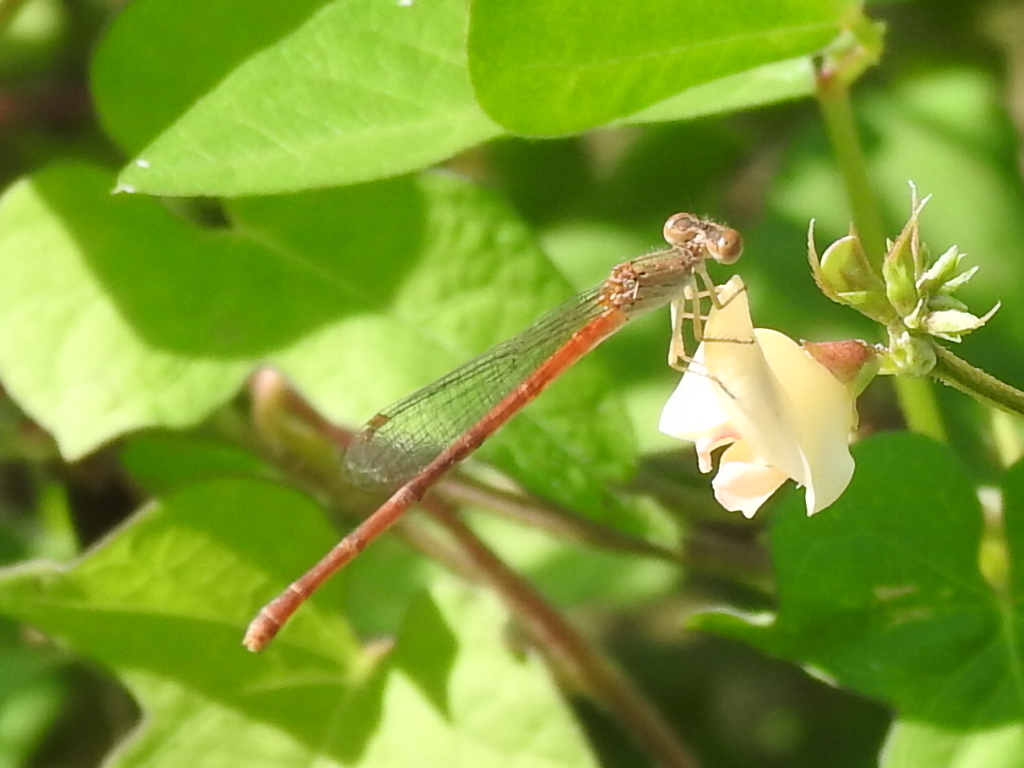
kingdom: Animalia
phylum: Arthropoda
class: Insecta
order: Odonata
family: Coenagrionidae
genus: Telebasis
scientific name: Telebasis salva
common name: Desert firetail
